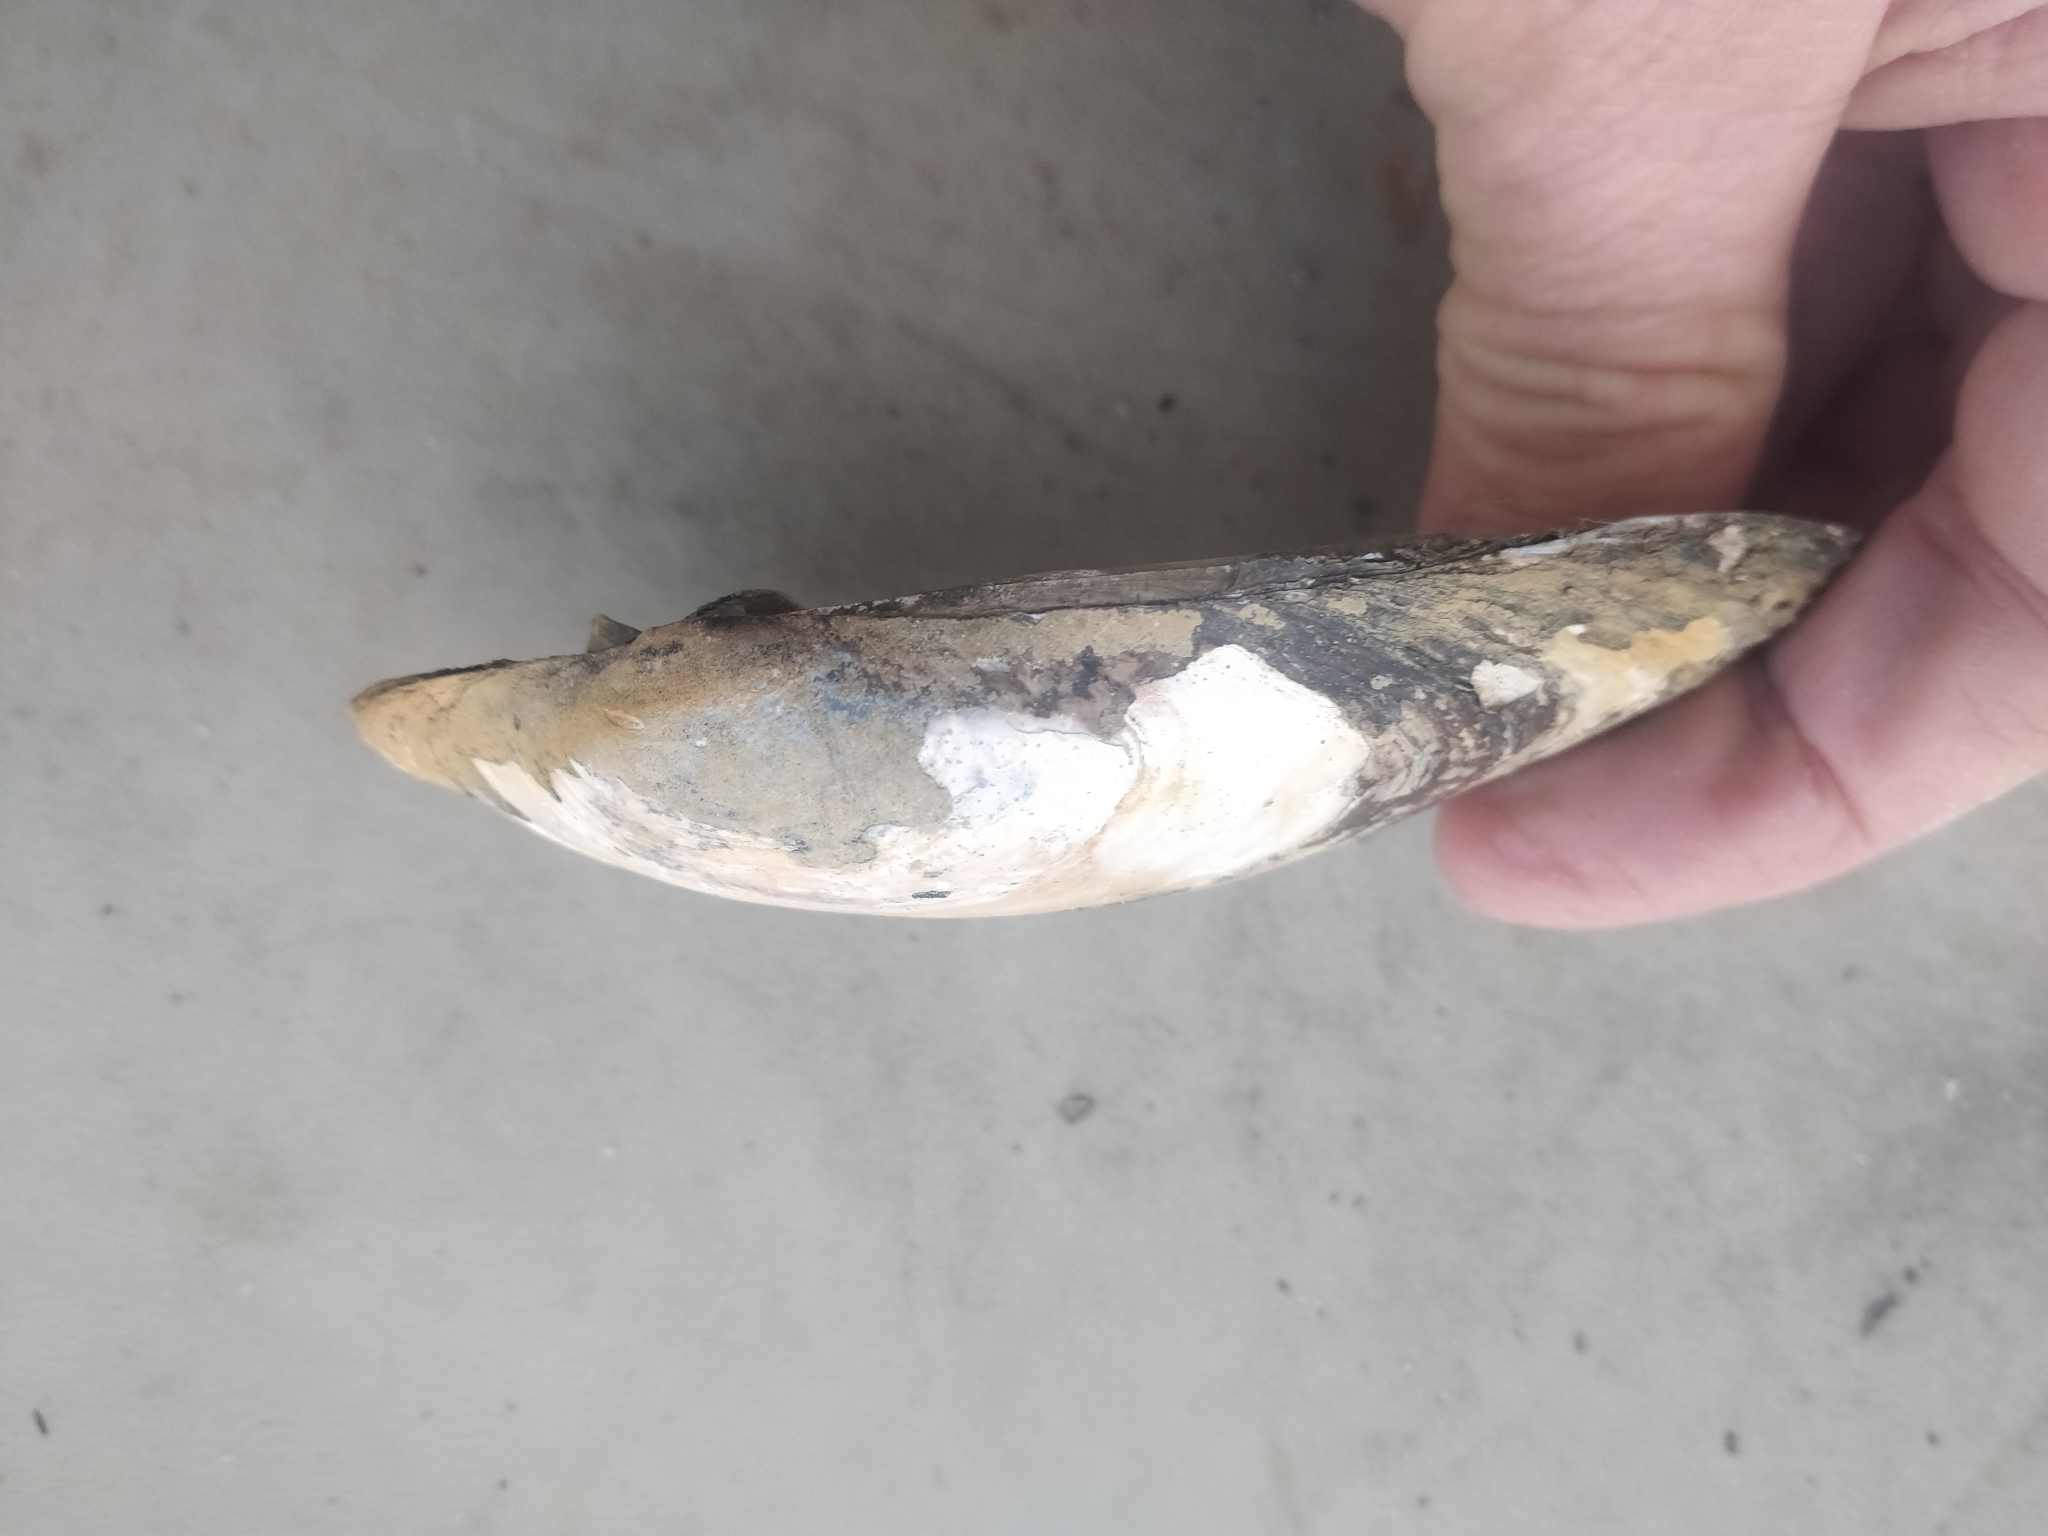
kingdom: Animalia
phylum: Mollusca
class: Bivalvia
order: Unionida
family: Unionidae
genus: Lampsilis
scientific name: Lampsilis siliquoidea
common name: Fatmucket
